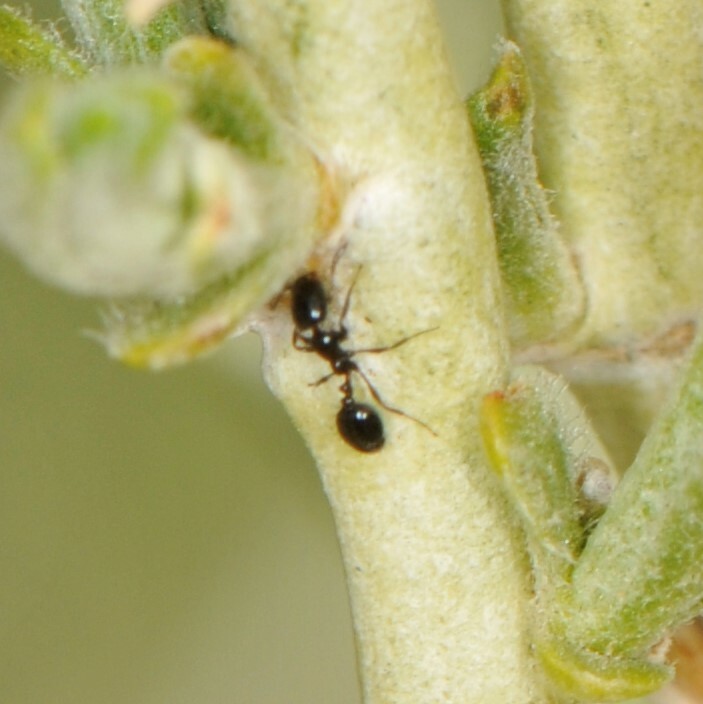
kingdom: Animalia
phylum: Arthropoda
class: Insecta
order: Hymenoptera
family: Formicidae
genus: Monomorium
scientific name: Monomorium
